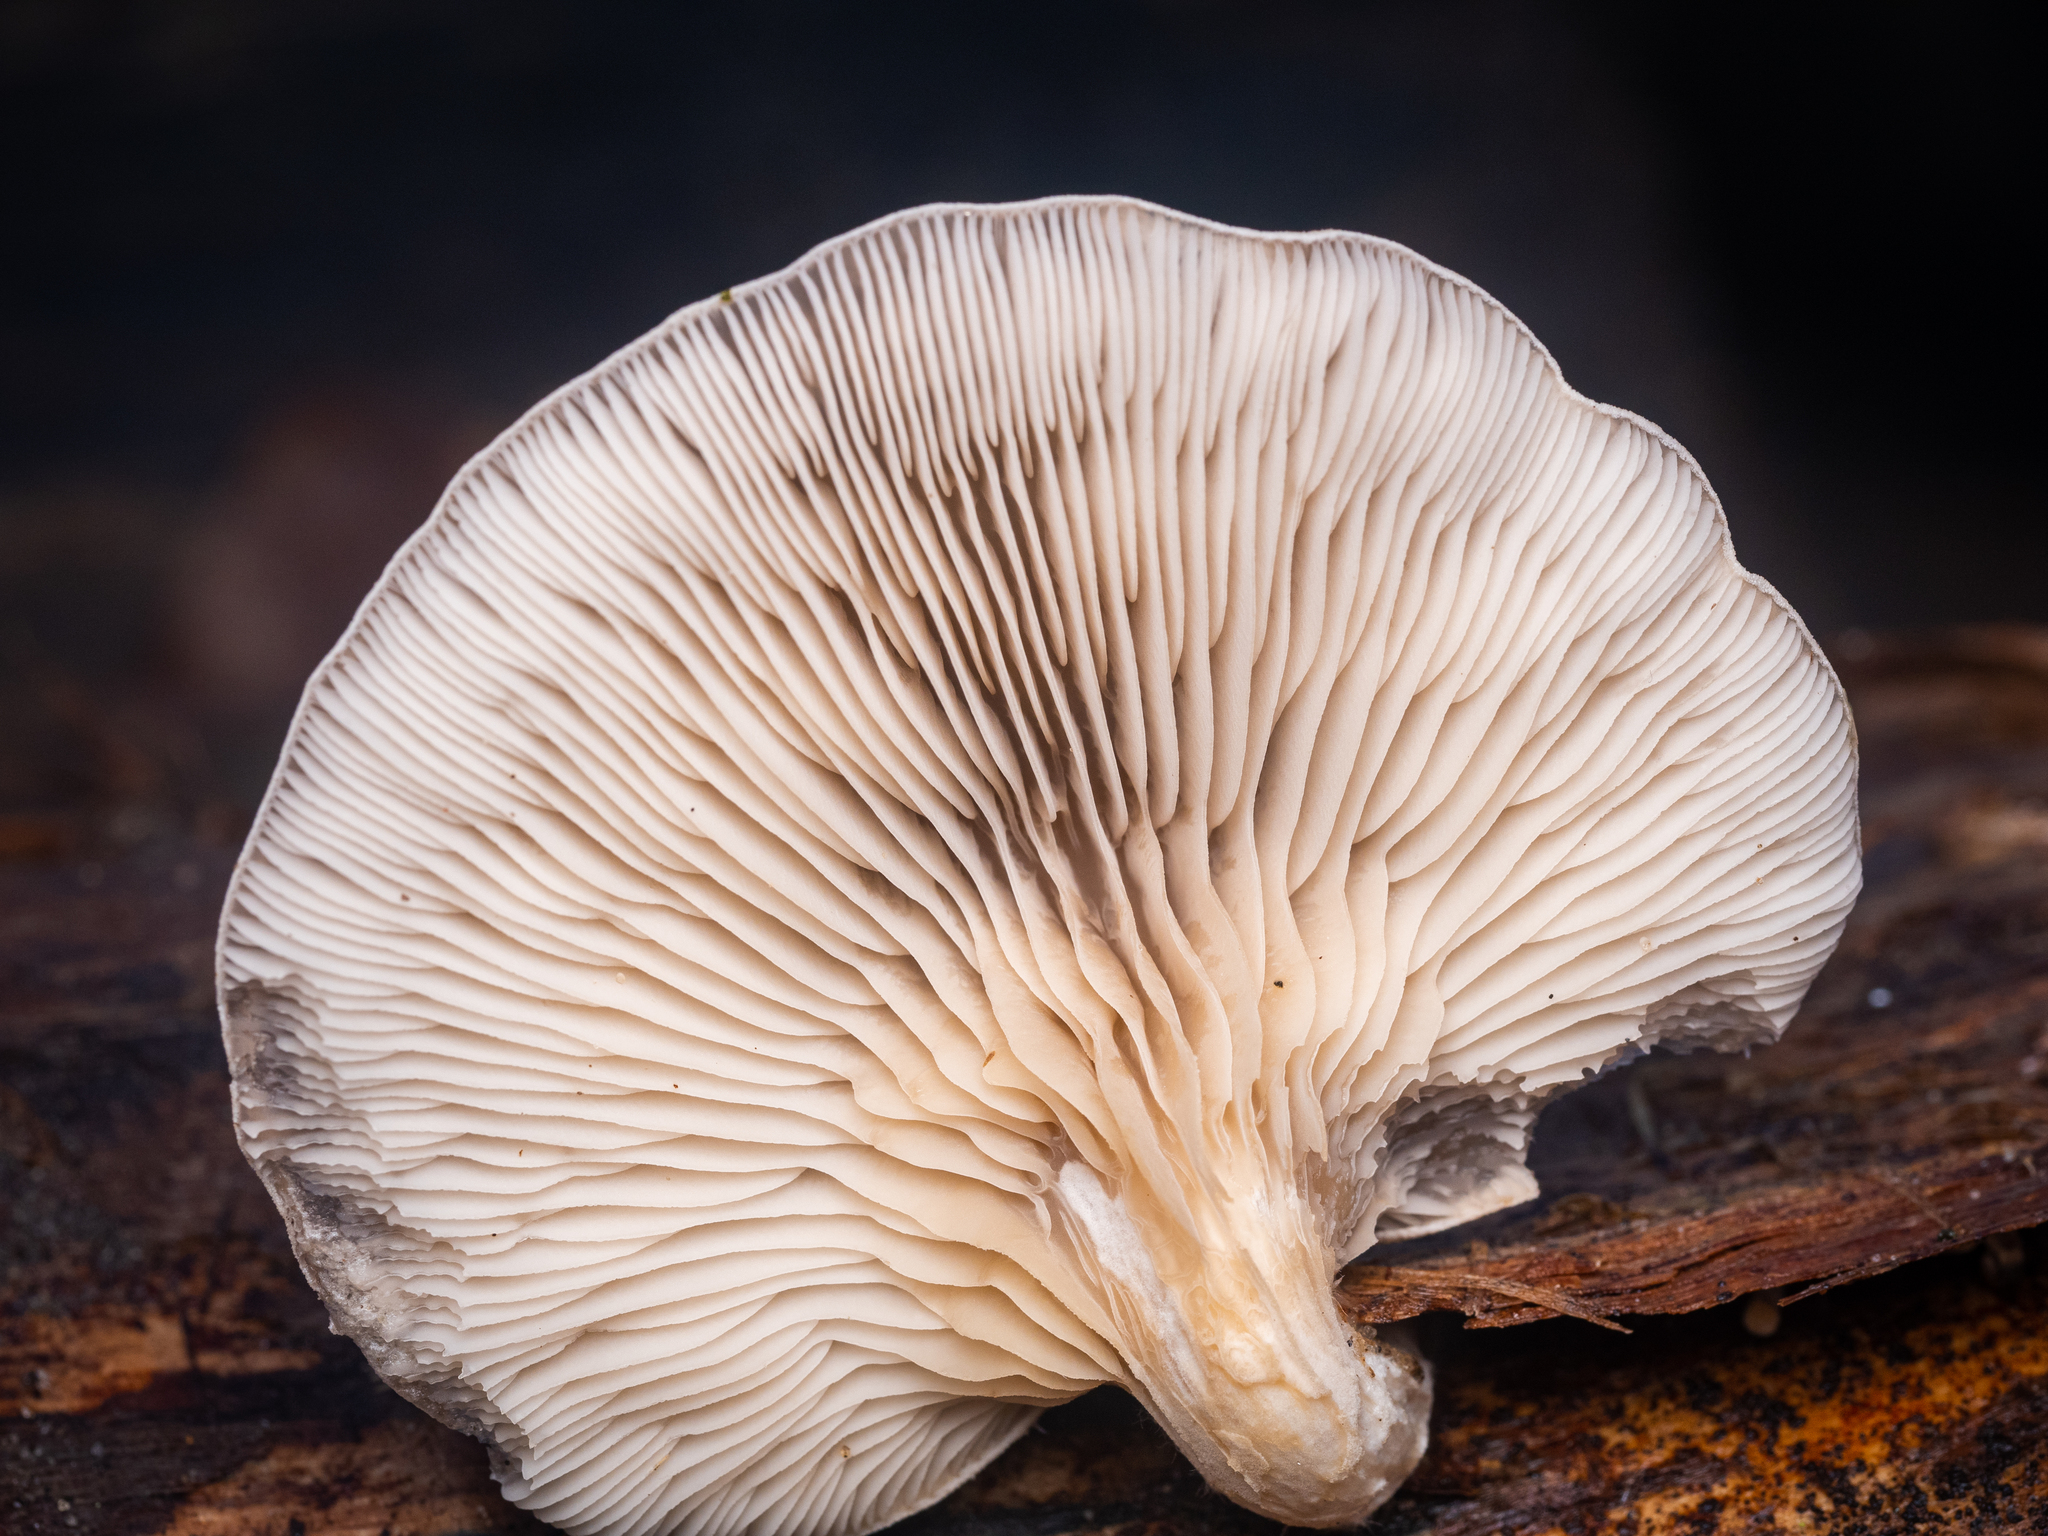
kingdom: Fungi
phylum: Basidiomycota
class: Agaricomycetes
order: Agaricales
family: Pleurotaceae
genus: Pleurotus
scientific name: Pleurotus ostreatus
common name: Oyster mushroom
